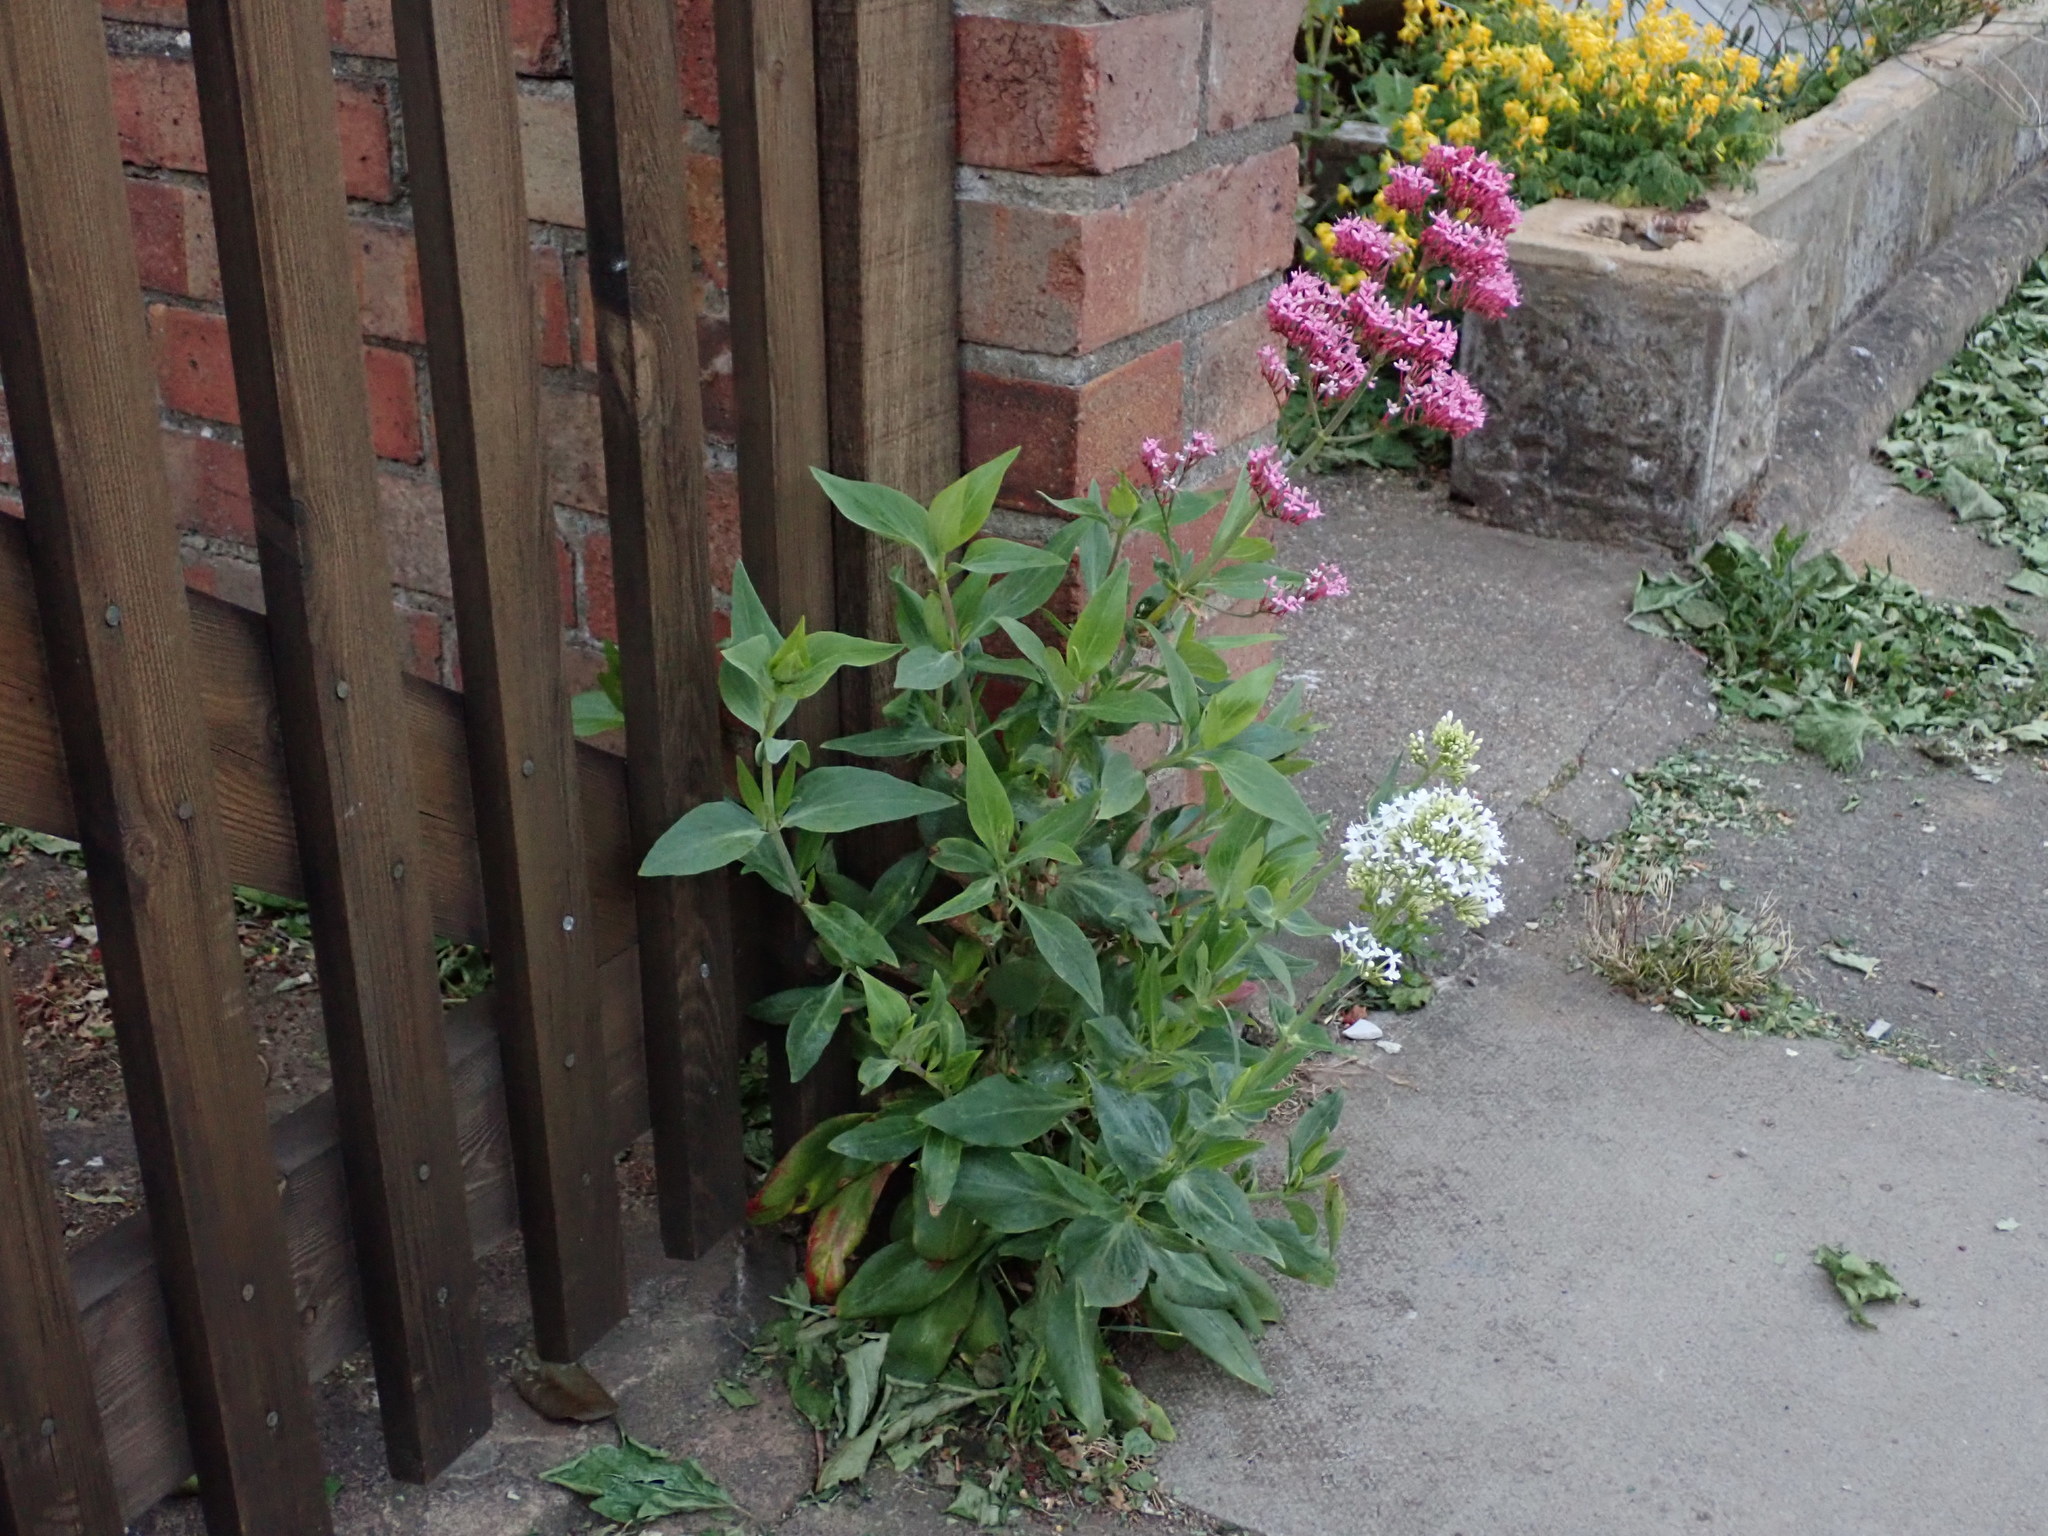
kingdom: Plantae
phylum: Tracheophyta
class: Magnoliopsida
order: Dipsacales
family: Caprifoliaceae
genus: Centranthus
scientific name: Centranthus ruber
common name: Red valerian
